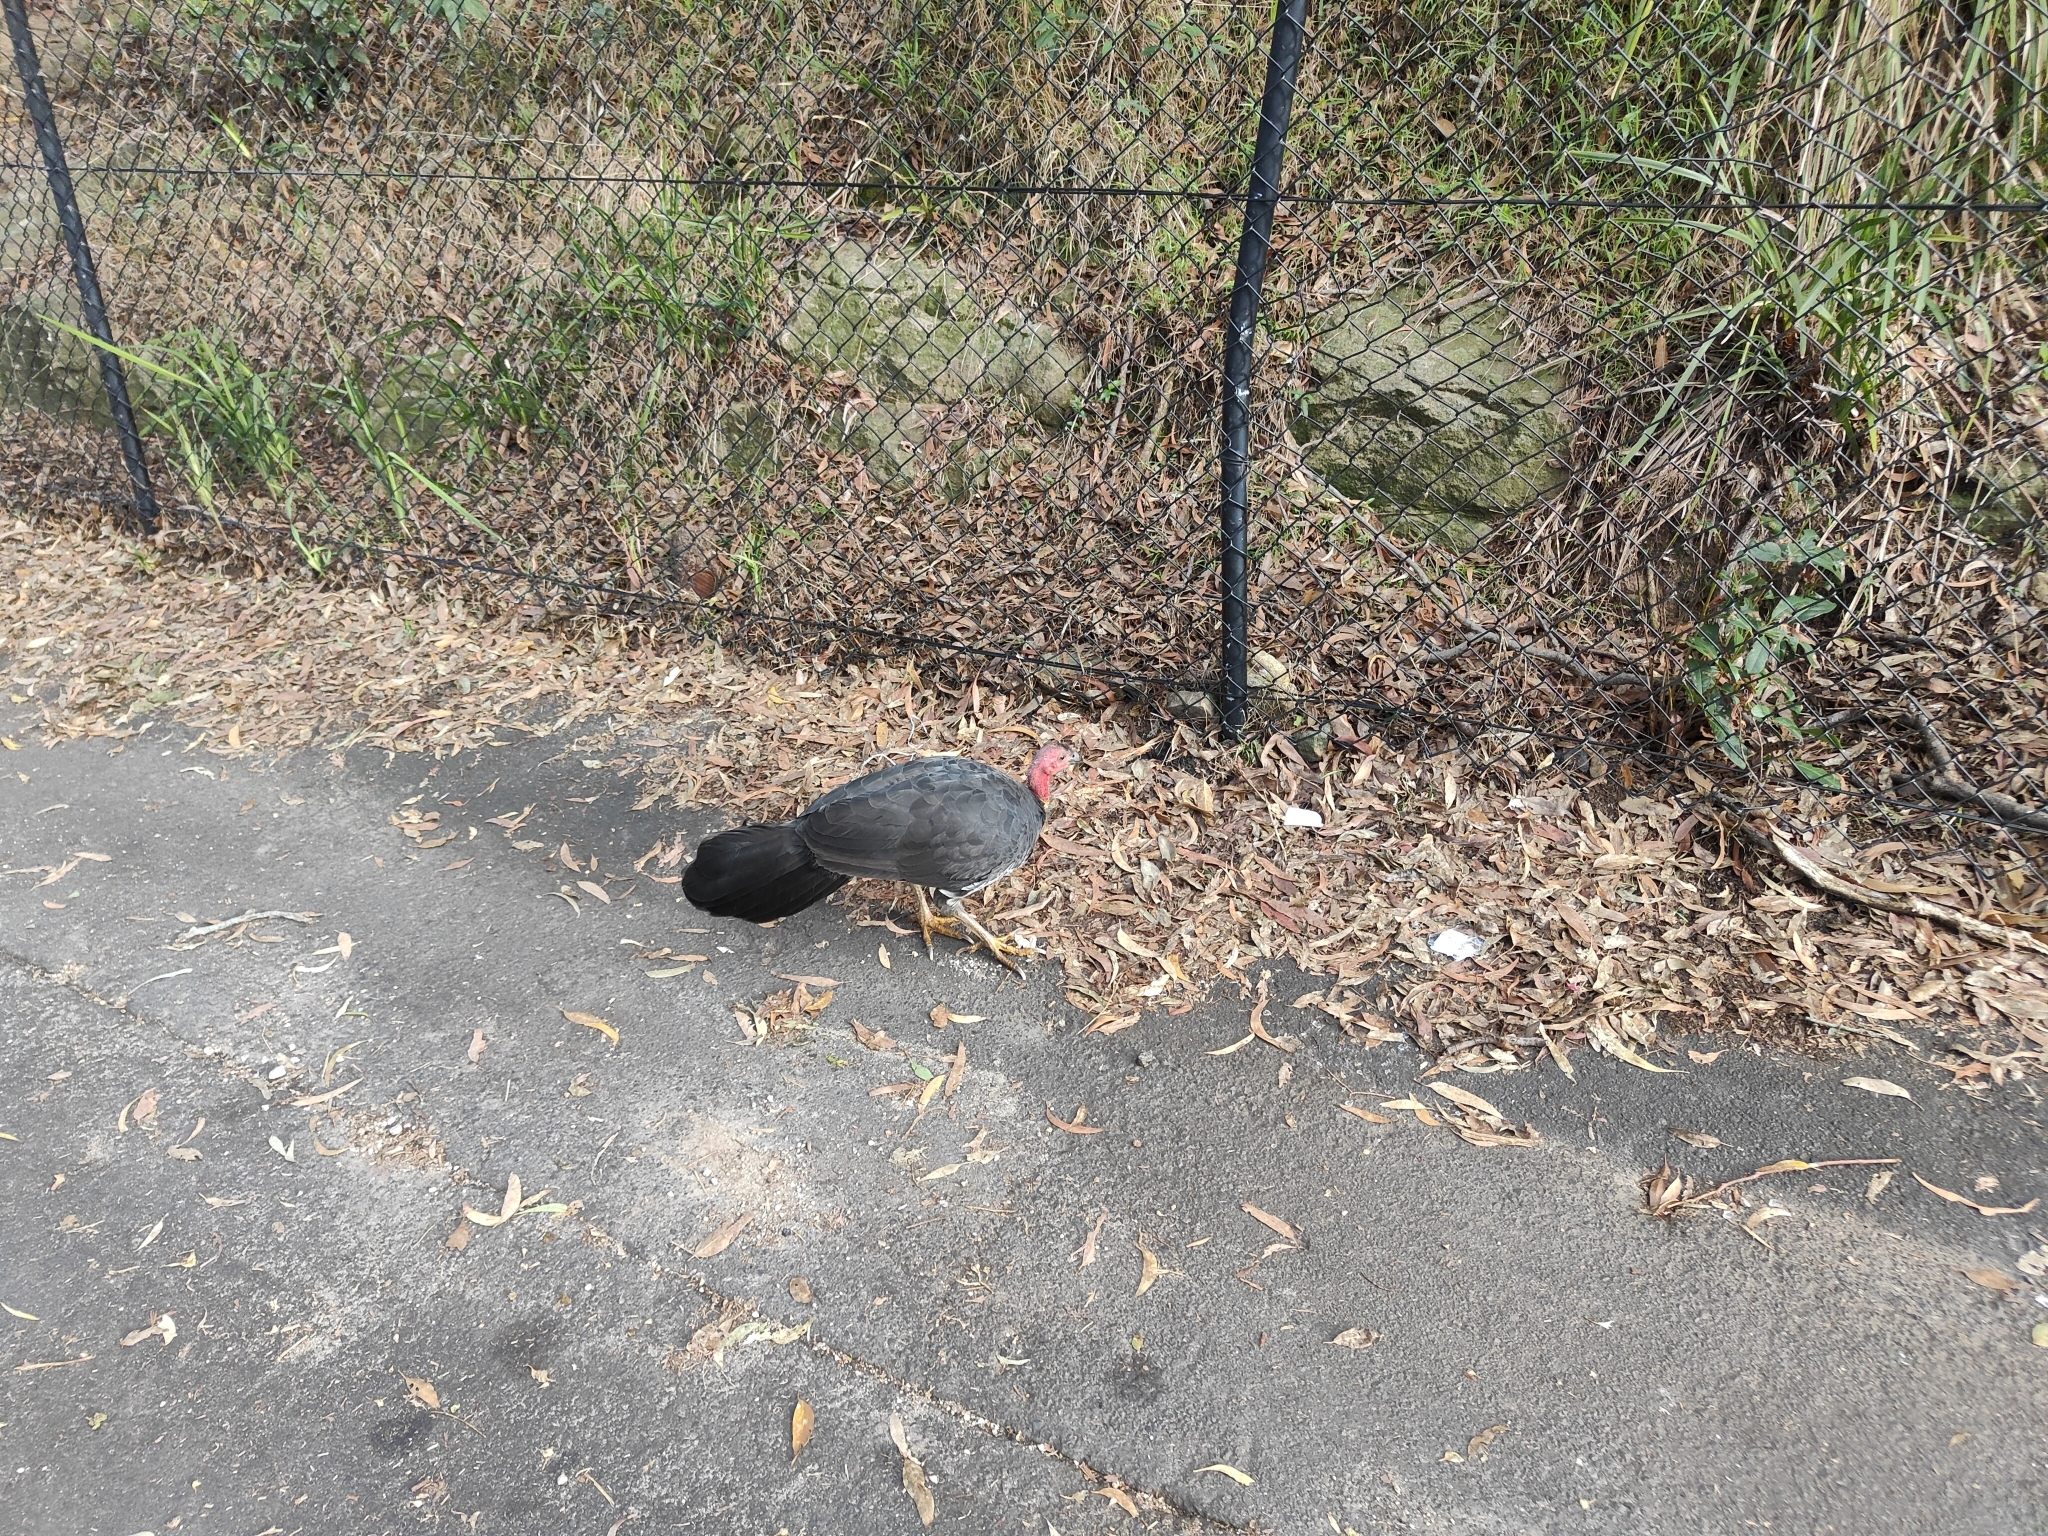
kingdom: Animalia
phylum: Chordata
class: Aves
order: Galliformes
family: Megapodiidae
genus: Alectura
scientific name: Alectura lathami
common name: Australian brushturkey
